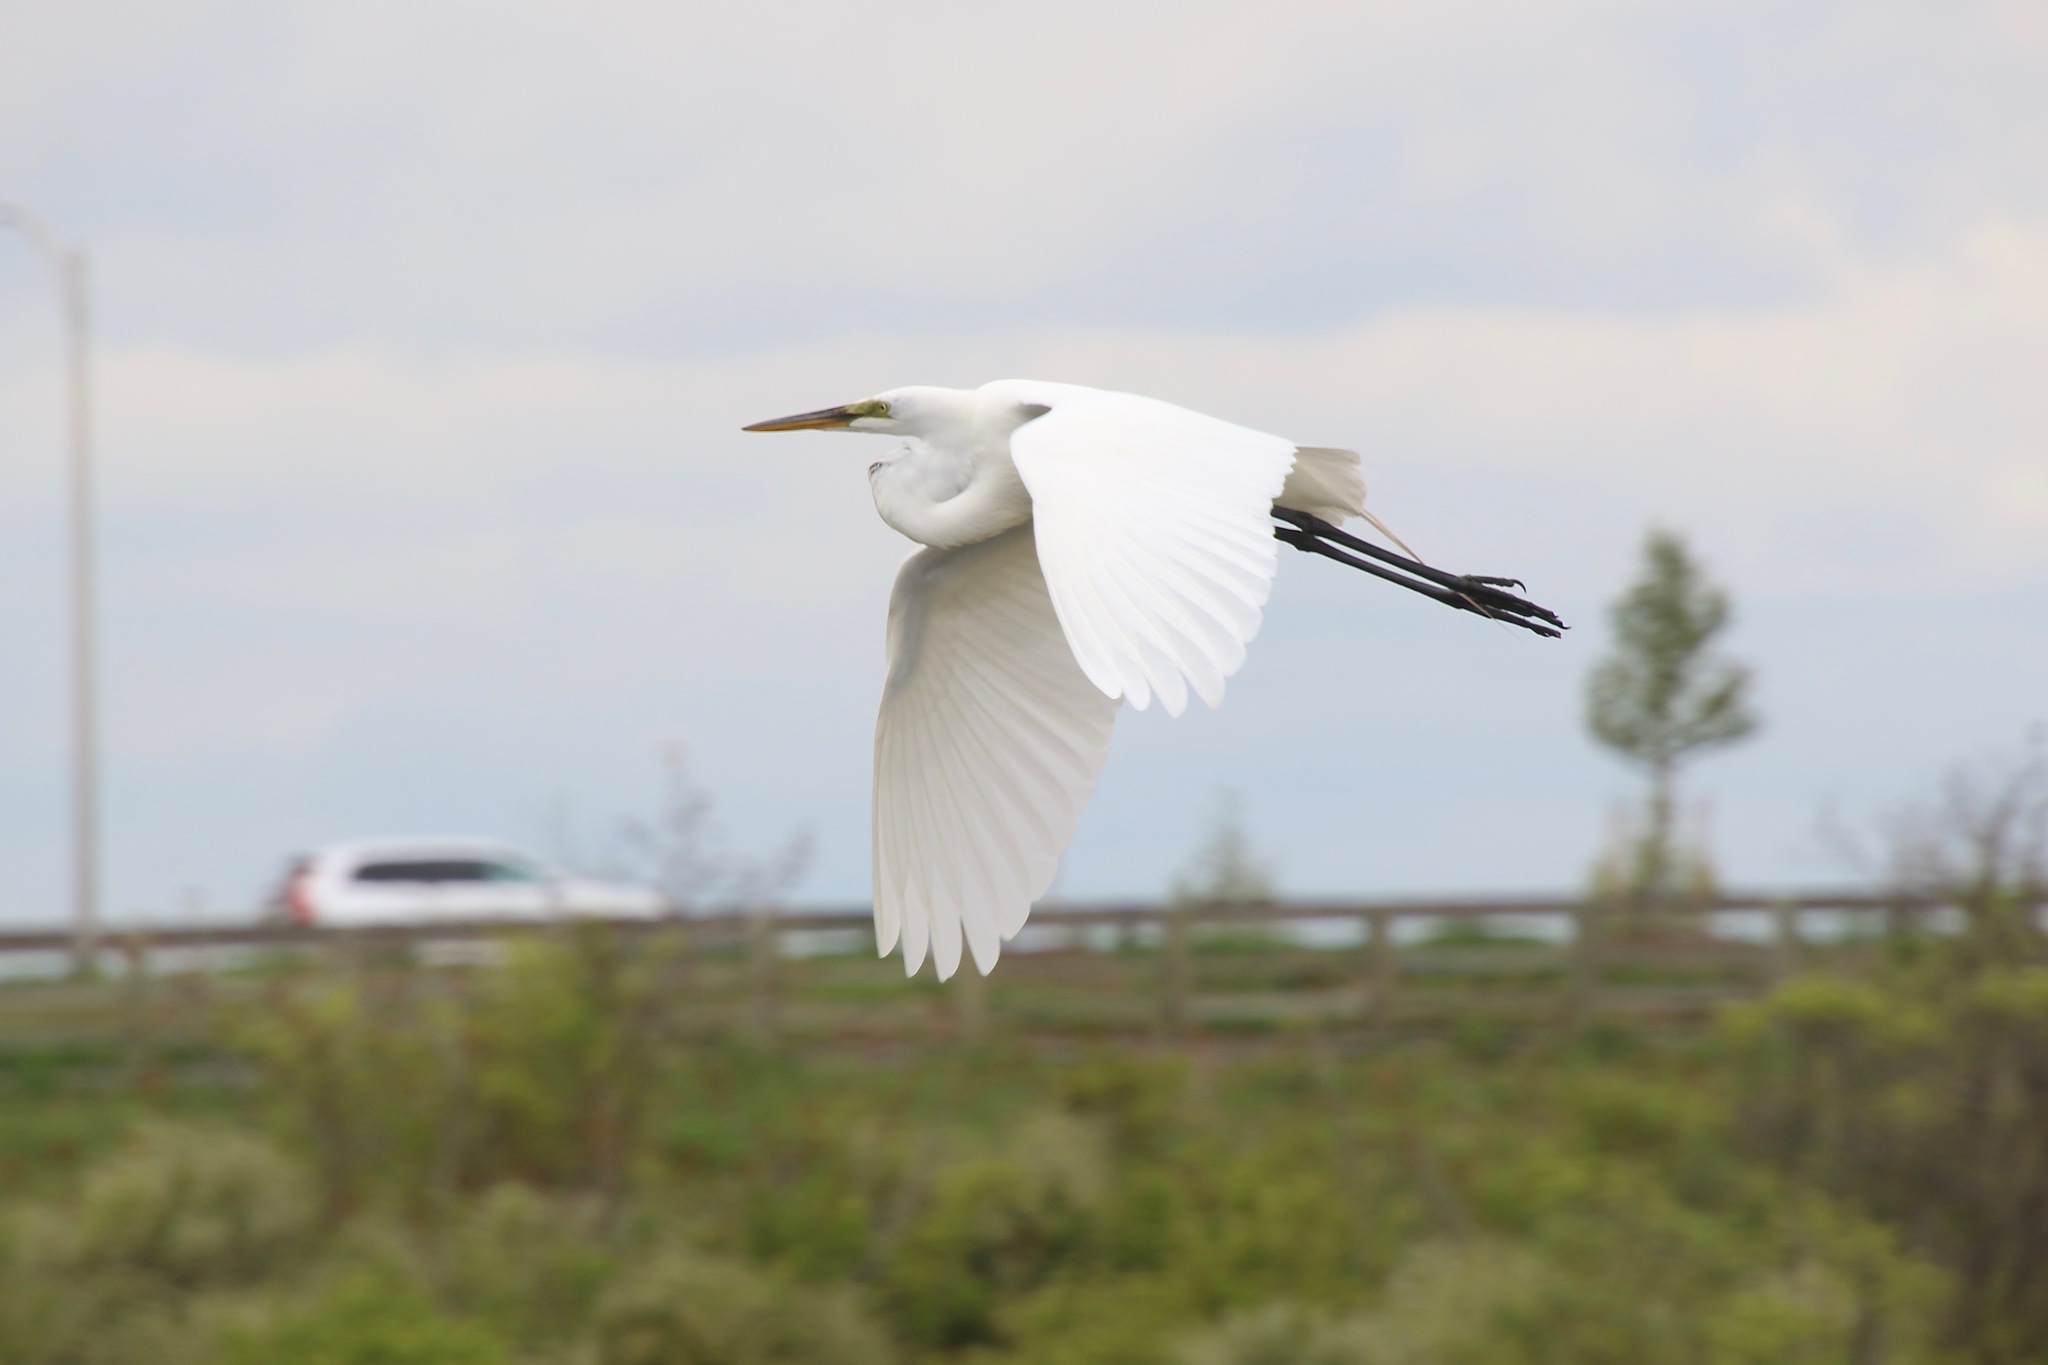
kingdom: Animalia
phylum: Chordata
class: Aves
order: Pelecaniformes
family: Ardeidae
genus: Ardea
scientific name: Ardea alba
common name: Great egret
